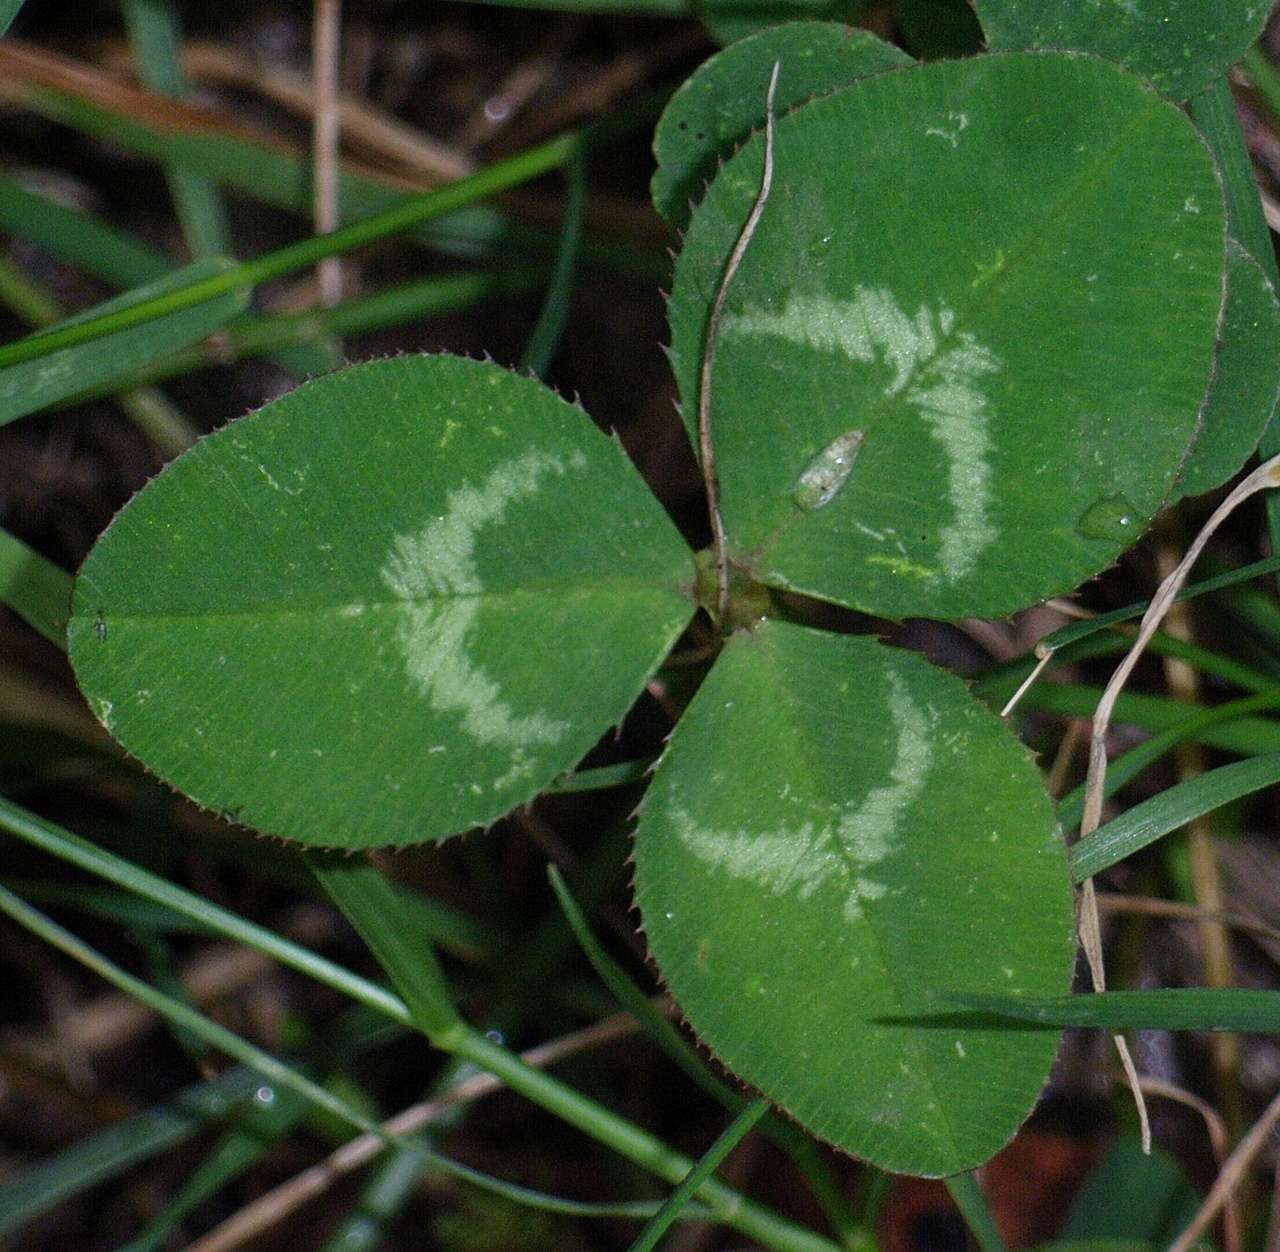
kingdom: Plantae
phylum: Tracheophyta
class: Magnoliopsida
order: Fabales
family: Fabaceae
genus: Trifolium
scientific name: Trifolium repens
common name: White clover
